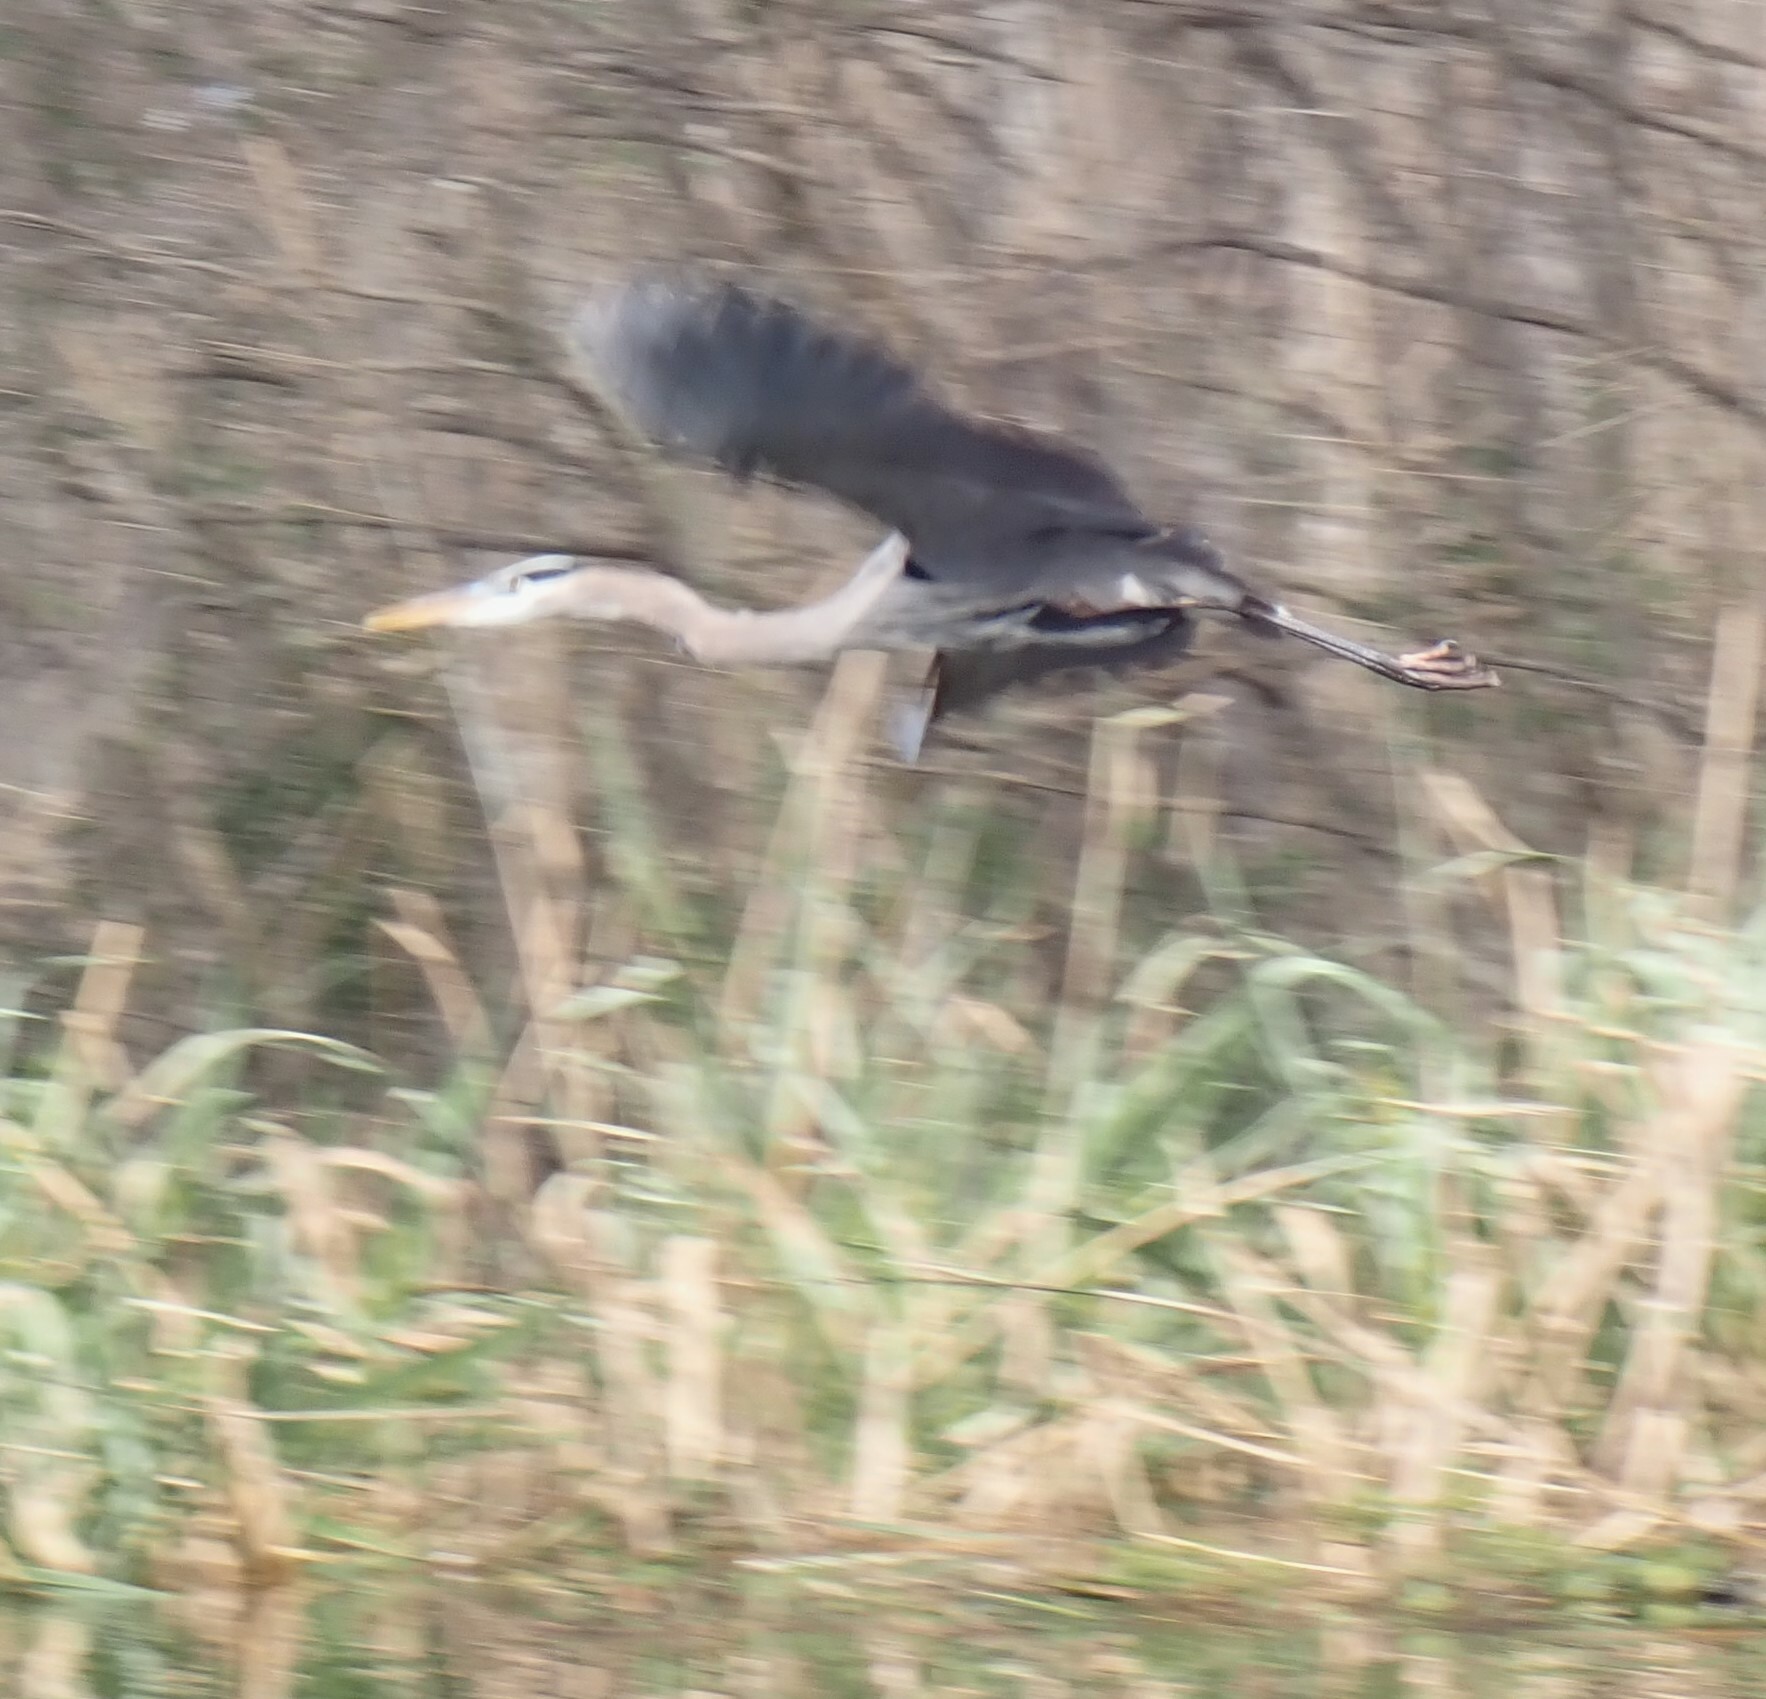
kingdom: Animalia
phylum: Chordata
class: Aves
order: Pelecaniformes
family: Ardeidae
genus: Ardea
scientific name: Ardea herodias
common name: Great blue heron
